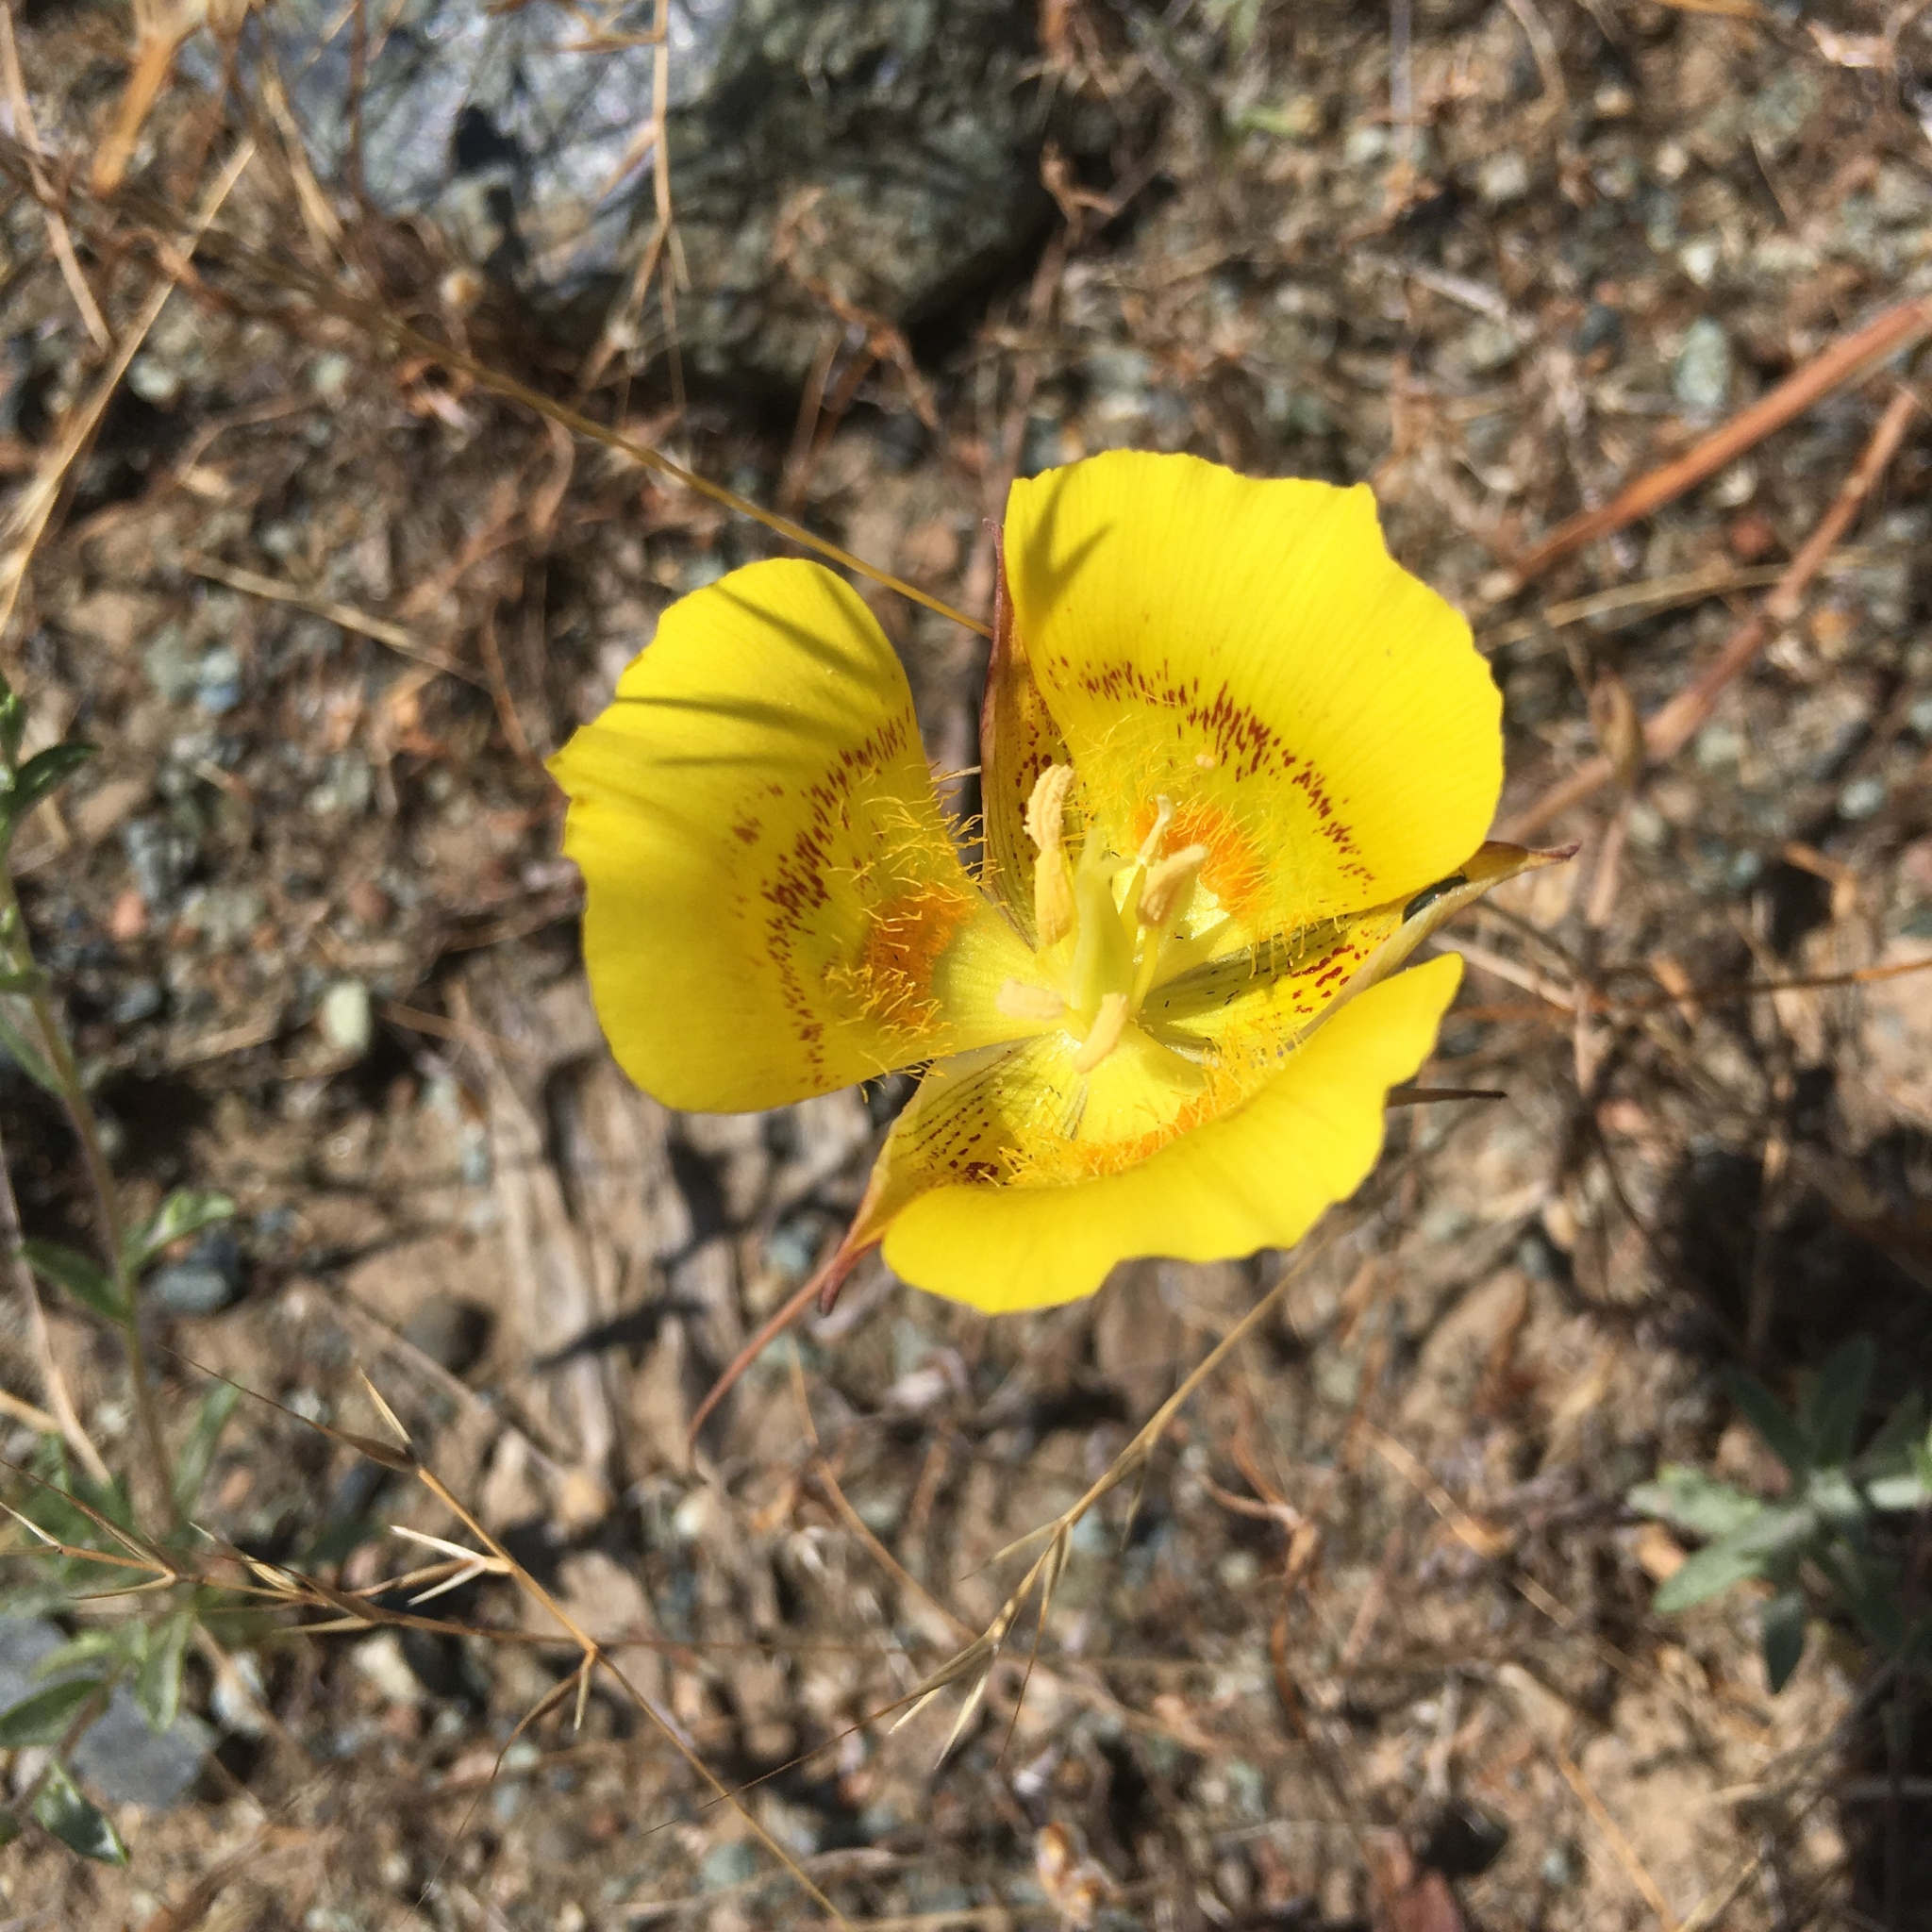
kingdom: Plantae
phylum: Tracheophyta
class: Liliopsida
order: Liliales
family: Liliaceae
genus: Calochortus
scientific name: Calochortus luteus
